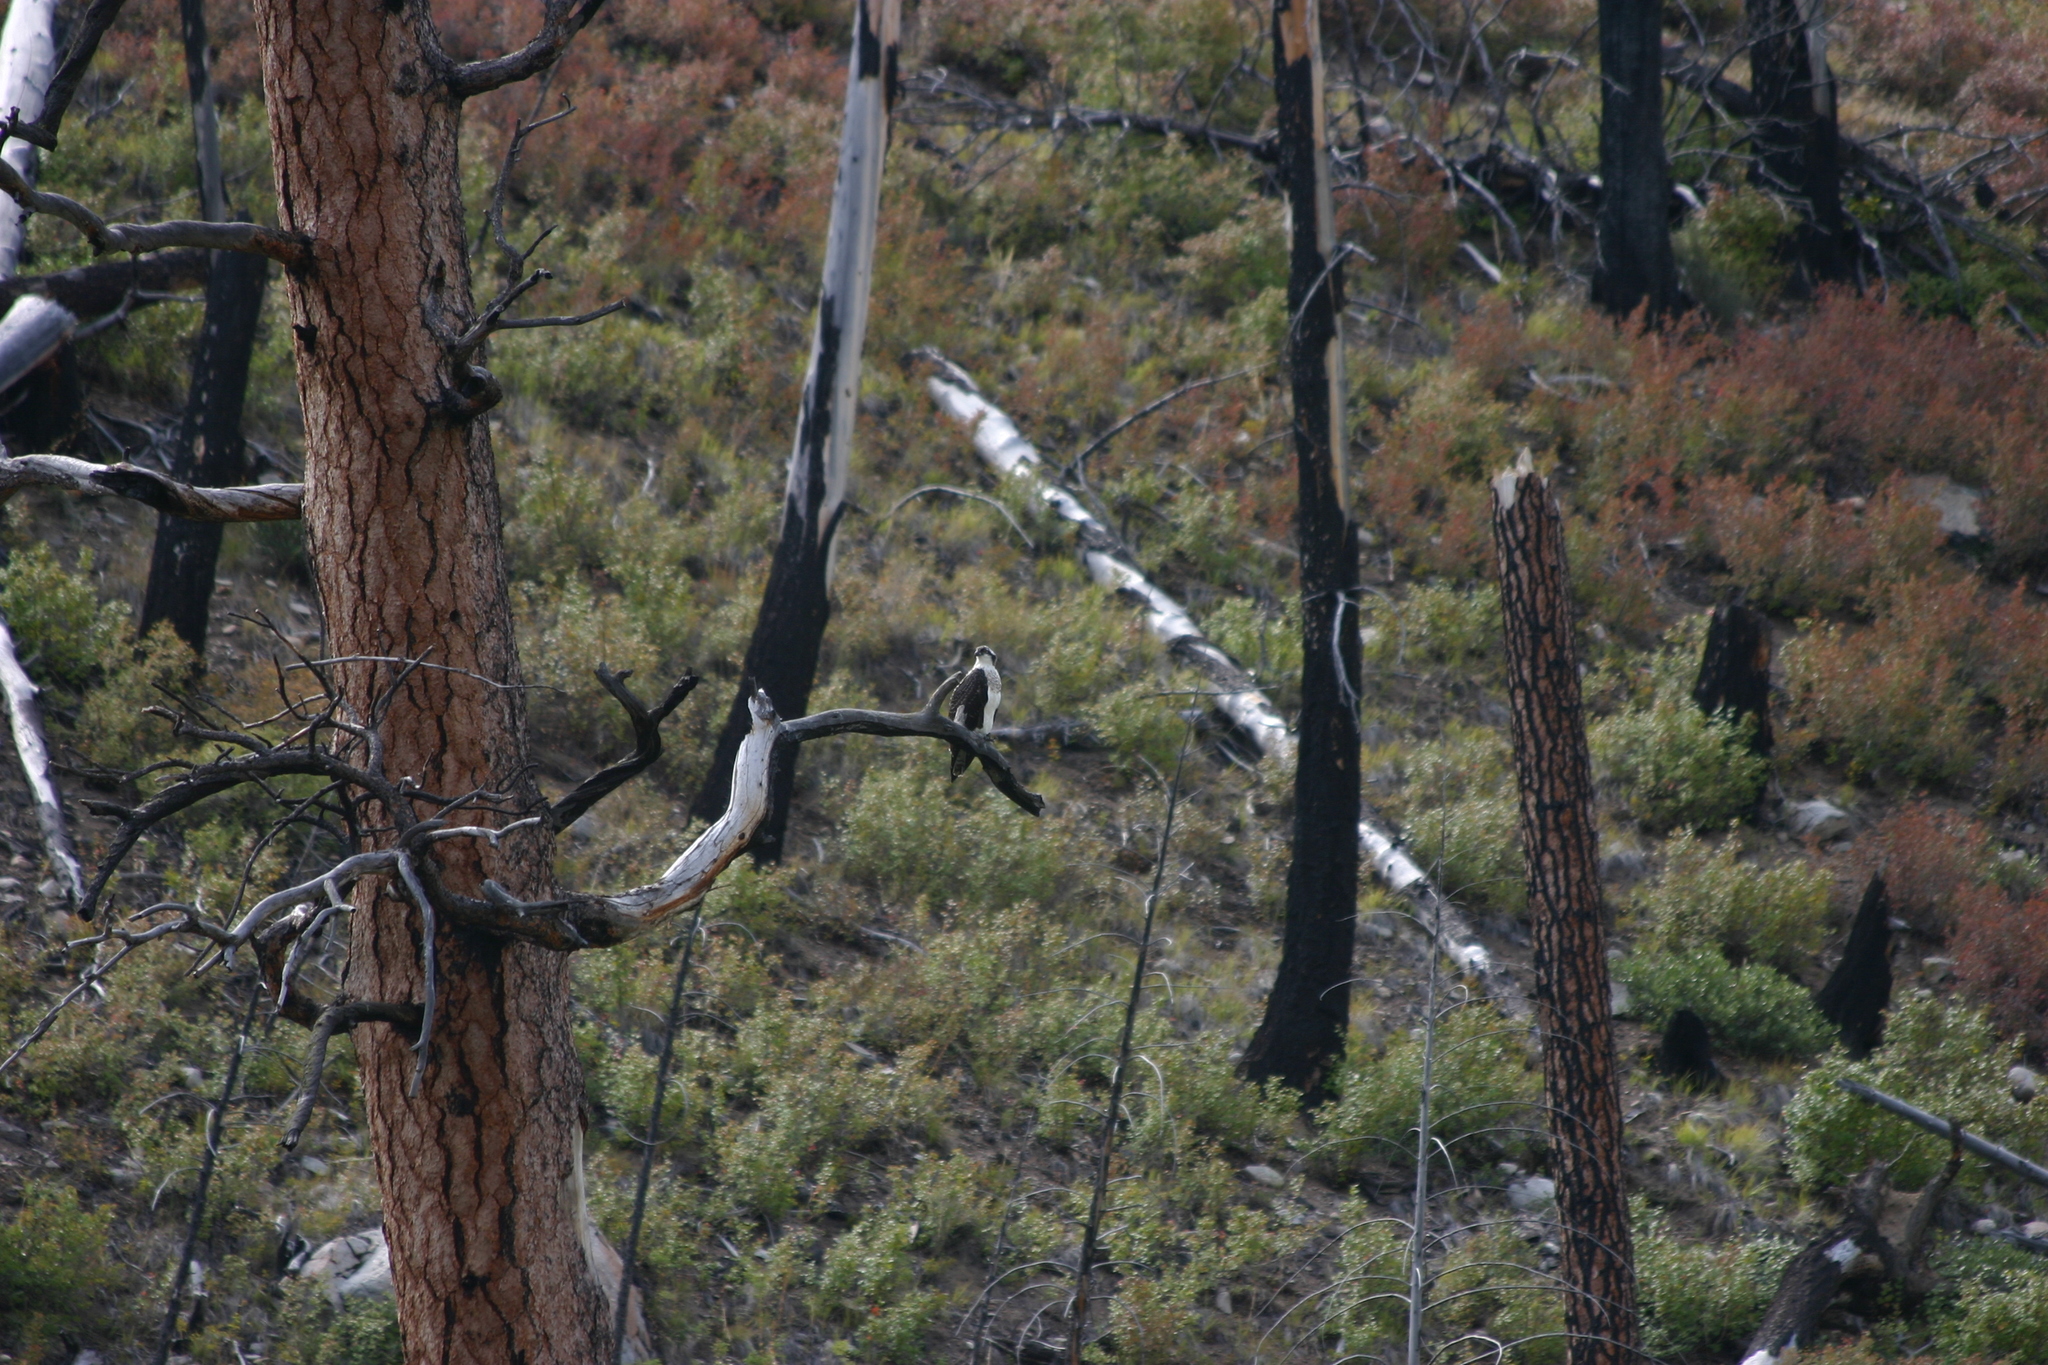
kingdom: Animalia
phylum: Chordata
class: Aves
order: Accipitriformes
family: Pandionidae
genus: Pandion
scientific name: Pandion haliaetus
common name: Osprey
